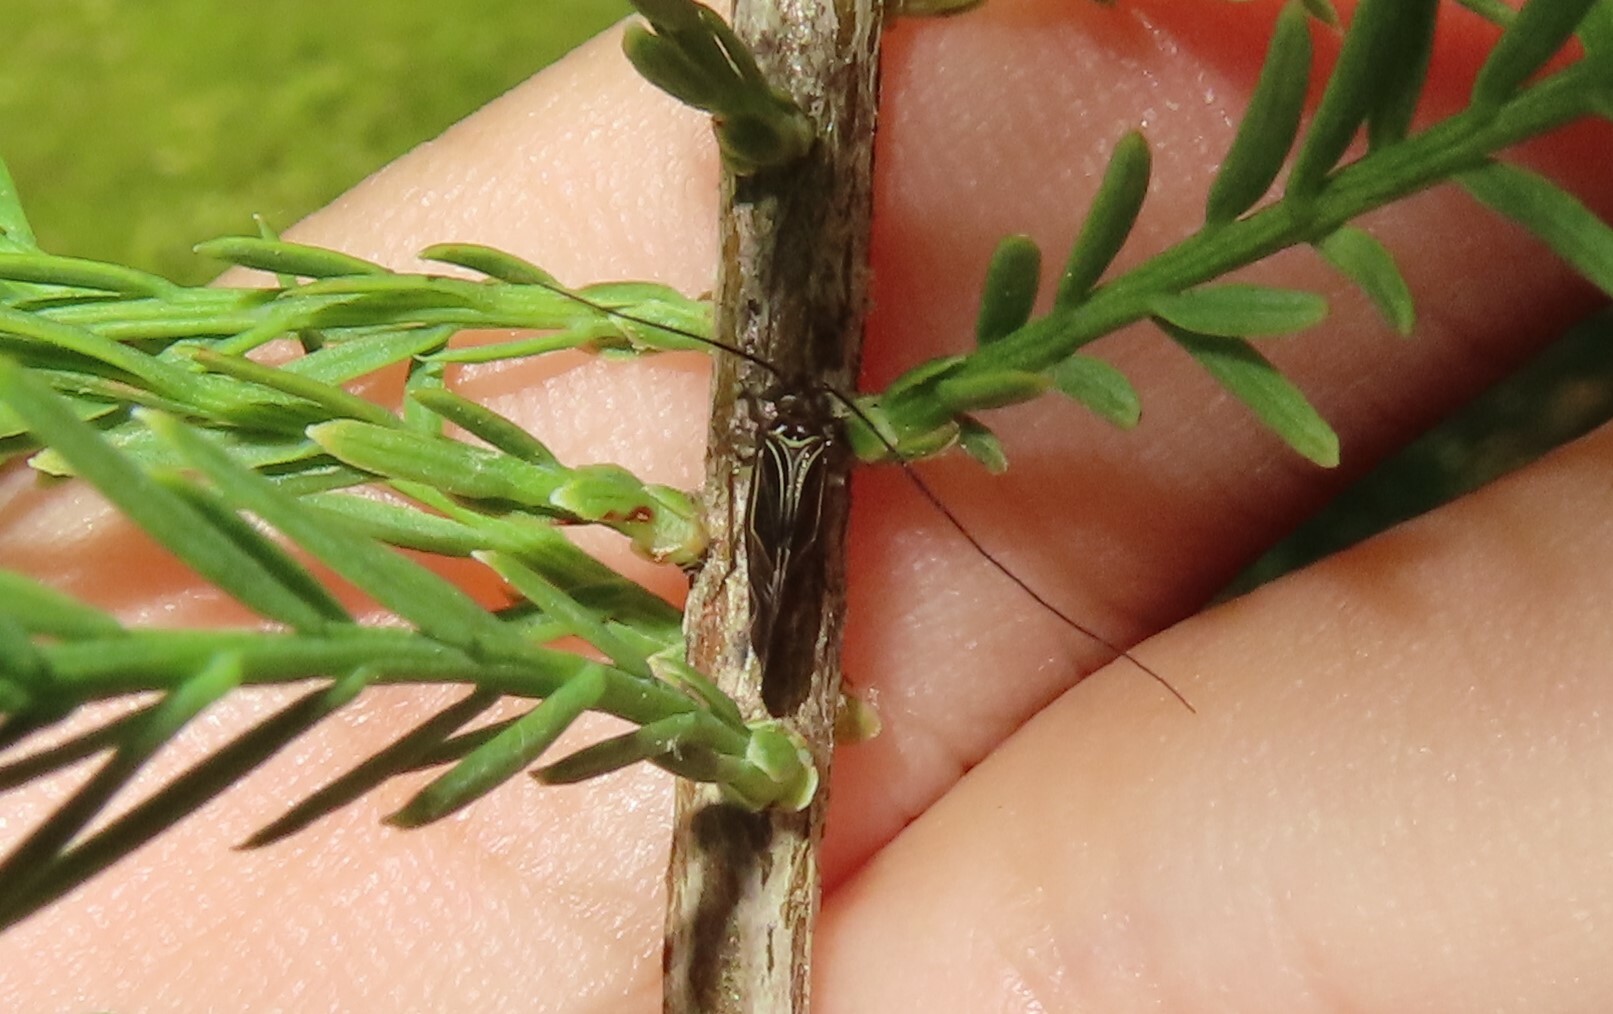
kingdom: Animalia
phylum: Arthropoda
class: Insecta
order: Psocodea
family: Psocidae
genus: Cerastipsocus
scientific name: Cerastipsocus venosus
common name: Tree cattle
